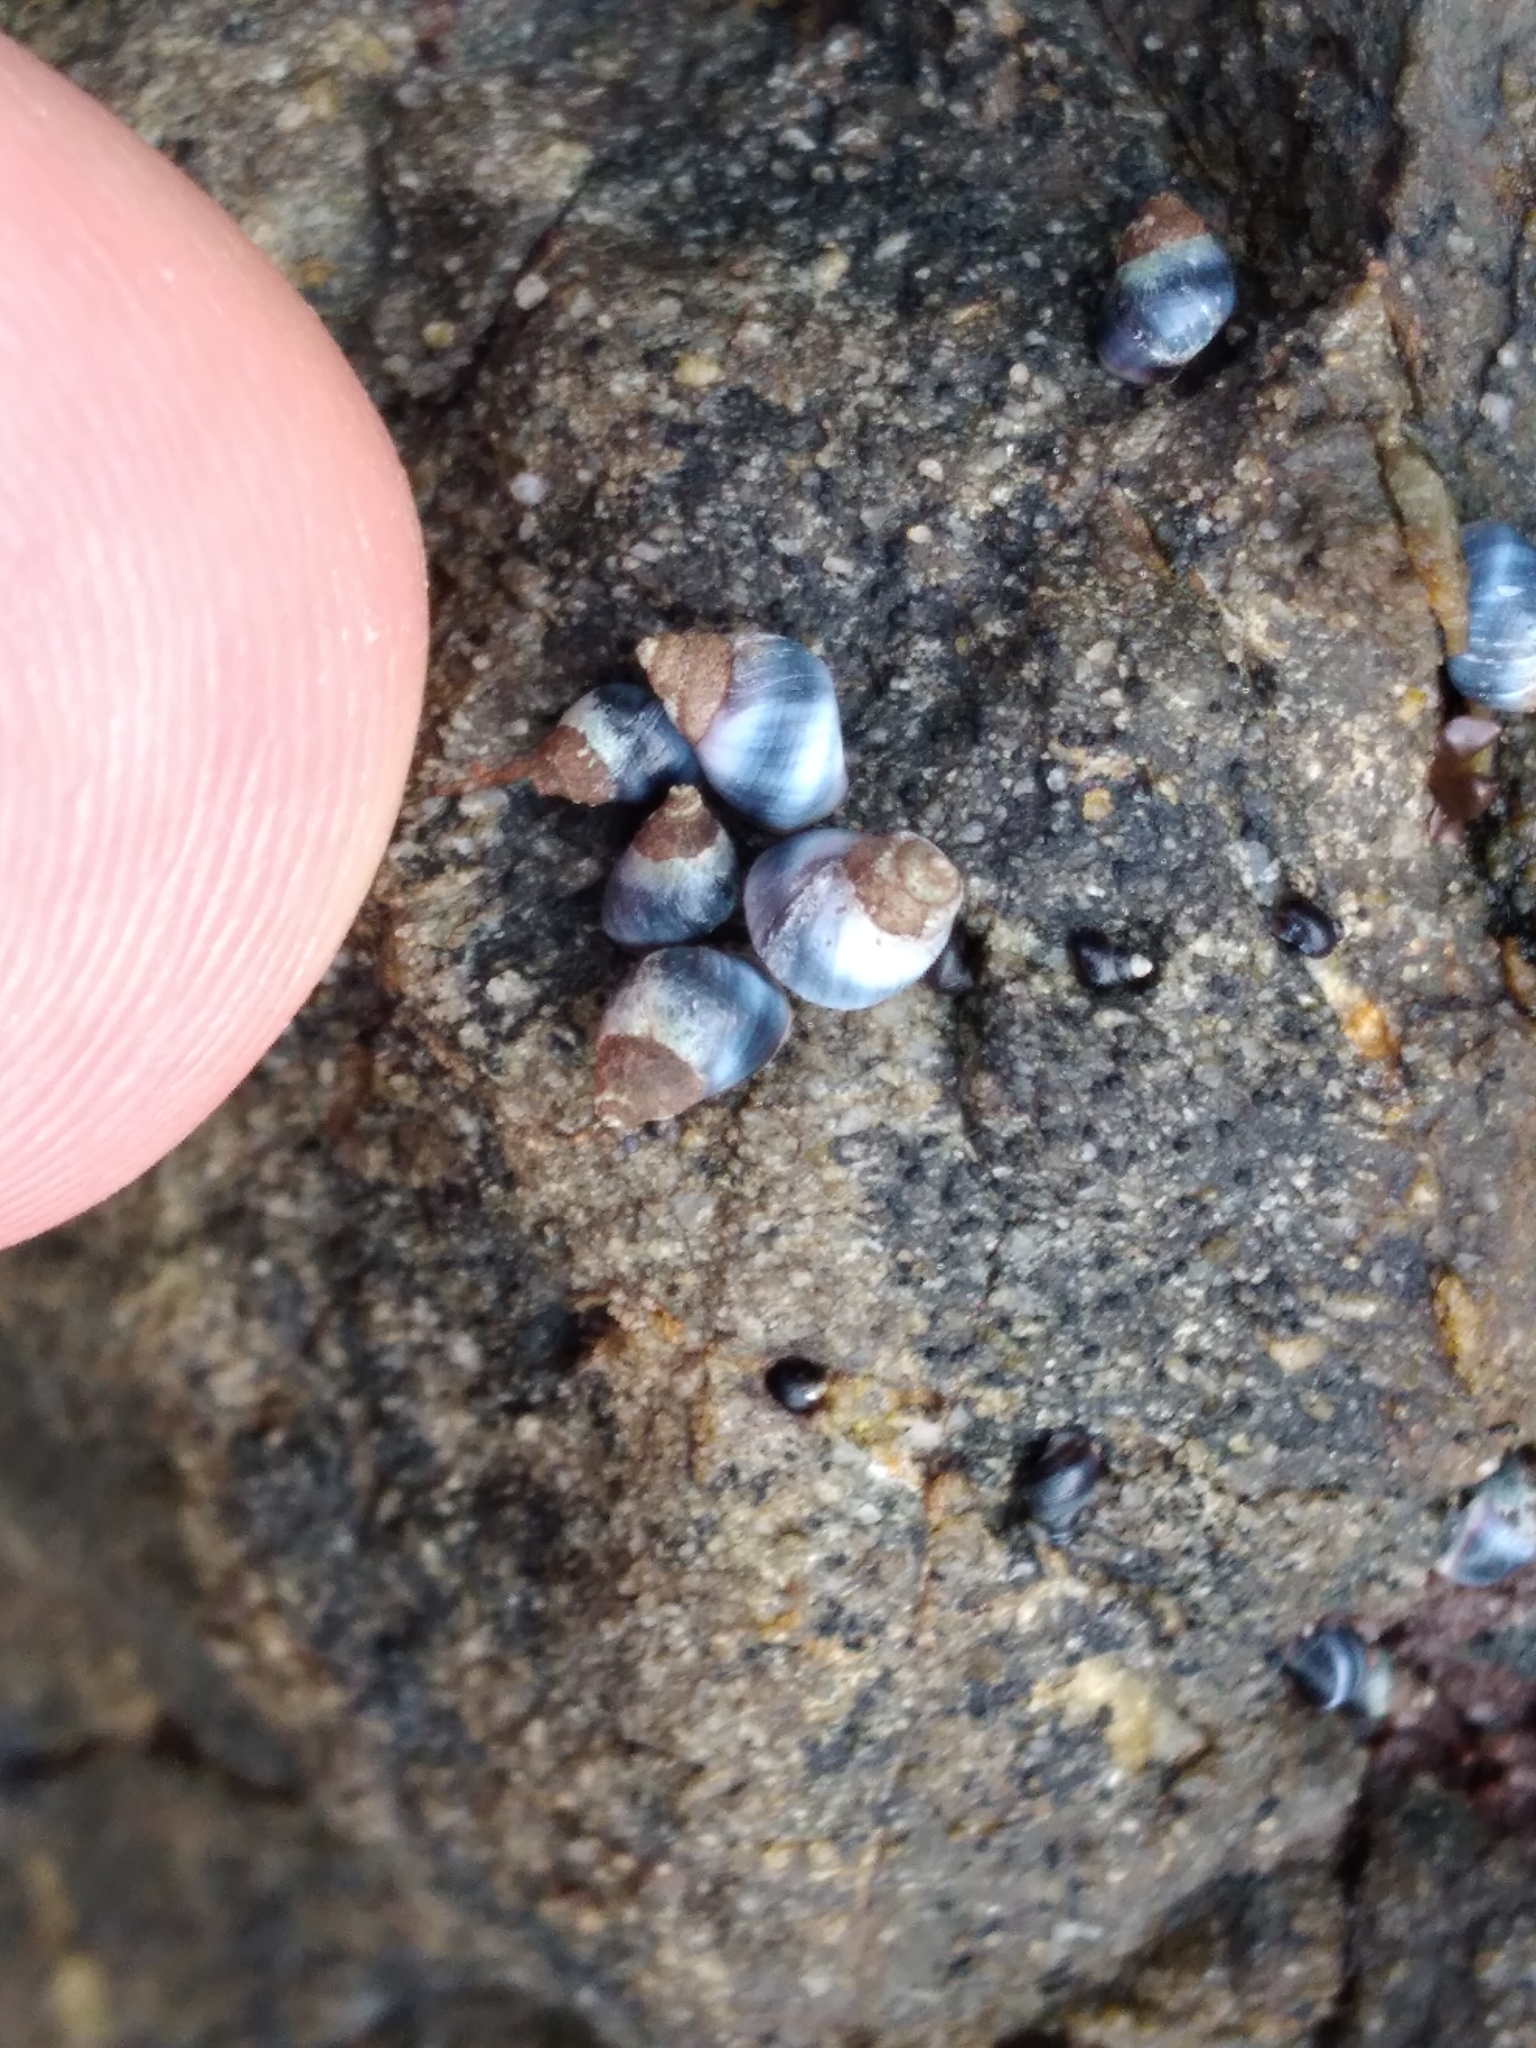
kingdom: Animalia
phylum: Mollusca
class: Gastropoda
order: Littorinimorpha
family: Littorinidae
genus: Austrolittorina
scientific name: Austrolittorina antipodum
